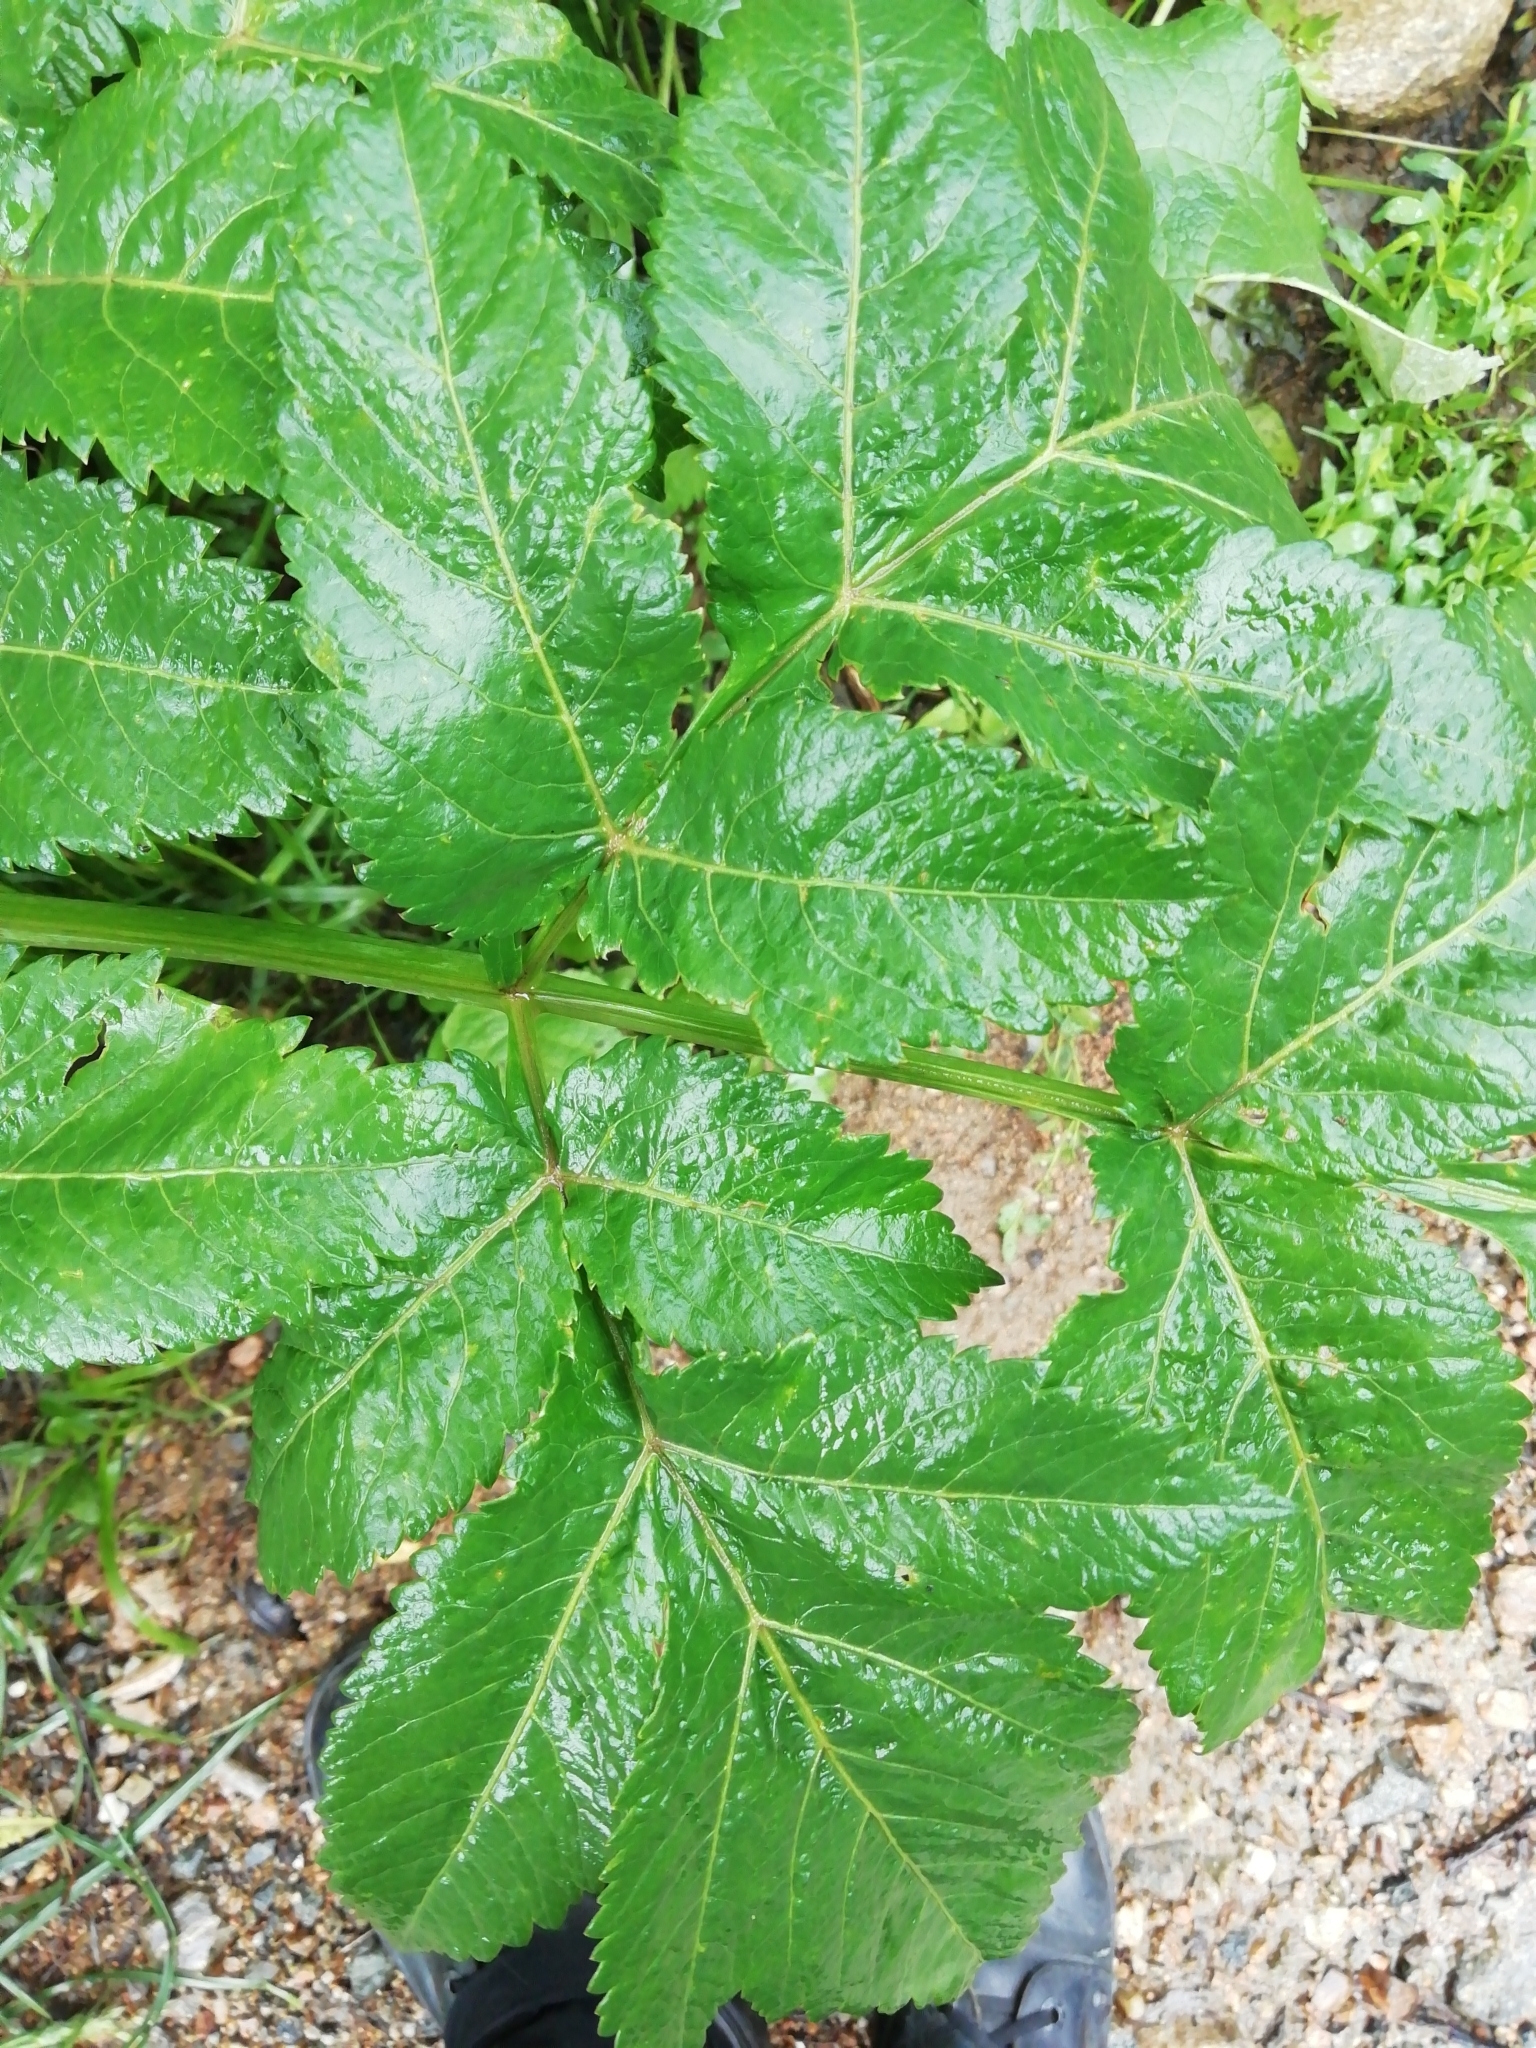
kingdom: Plantae
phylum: Tracheophyta
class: Magnoliopsida
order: Apiales
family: Apiaceae
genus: Angelica
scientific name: Angelica decurrens
